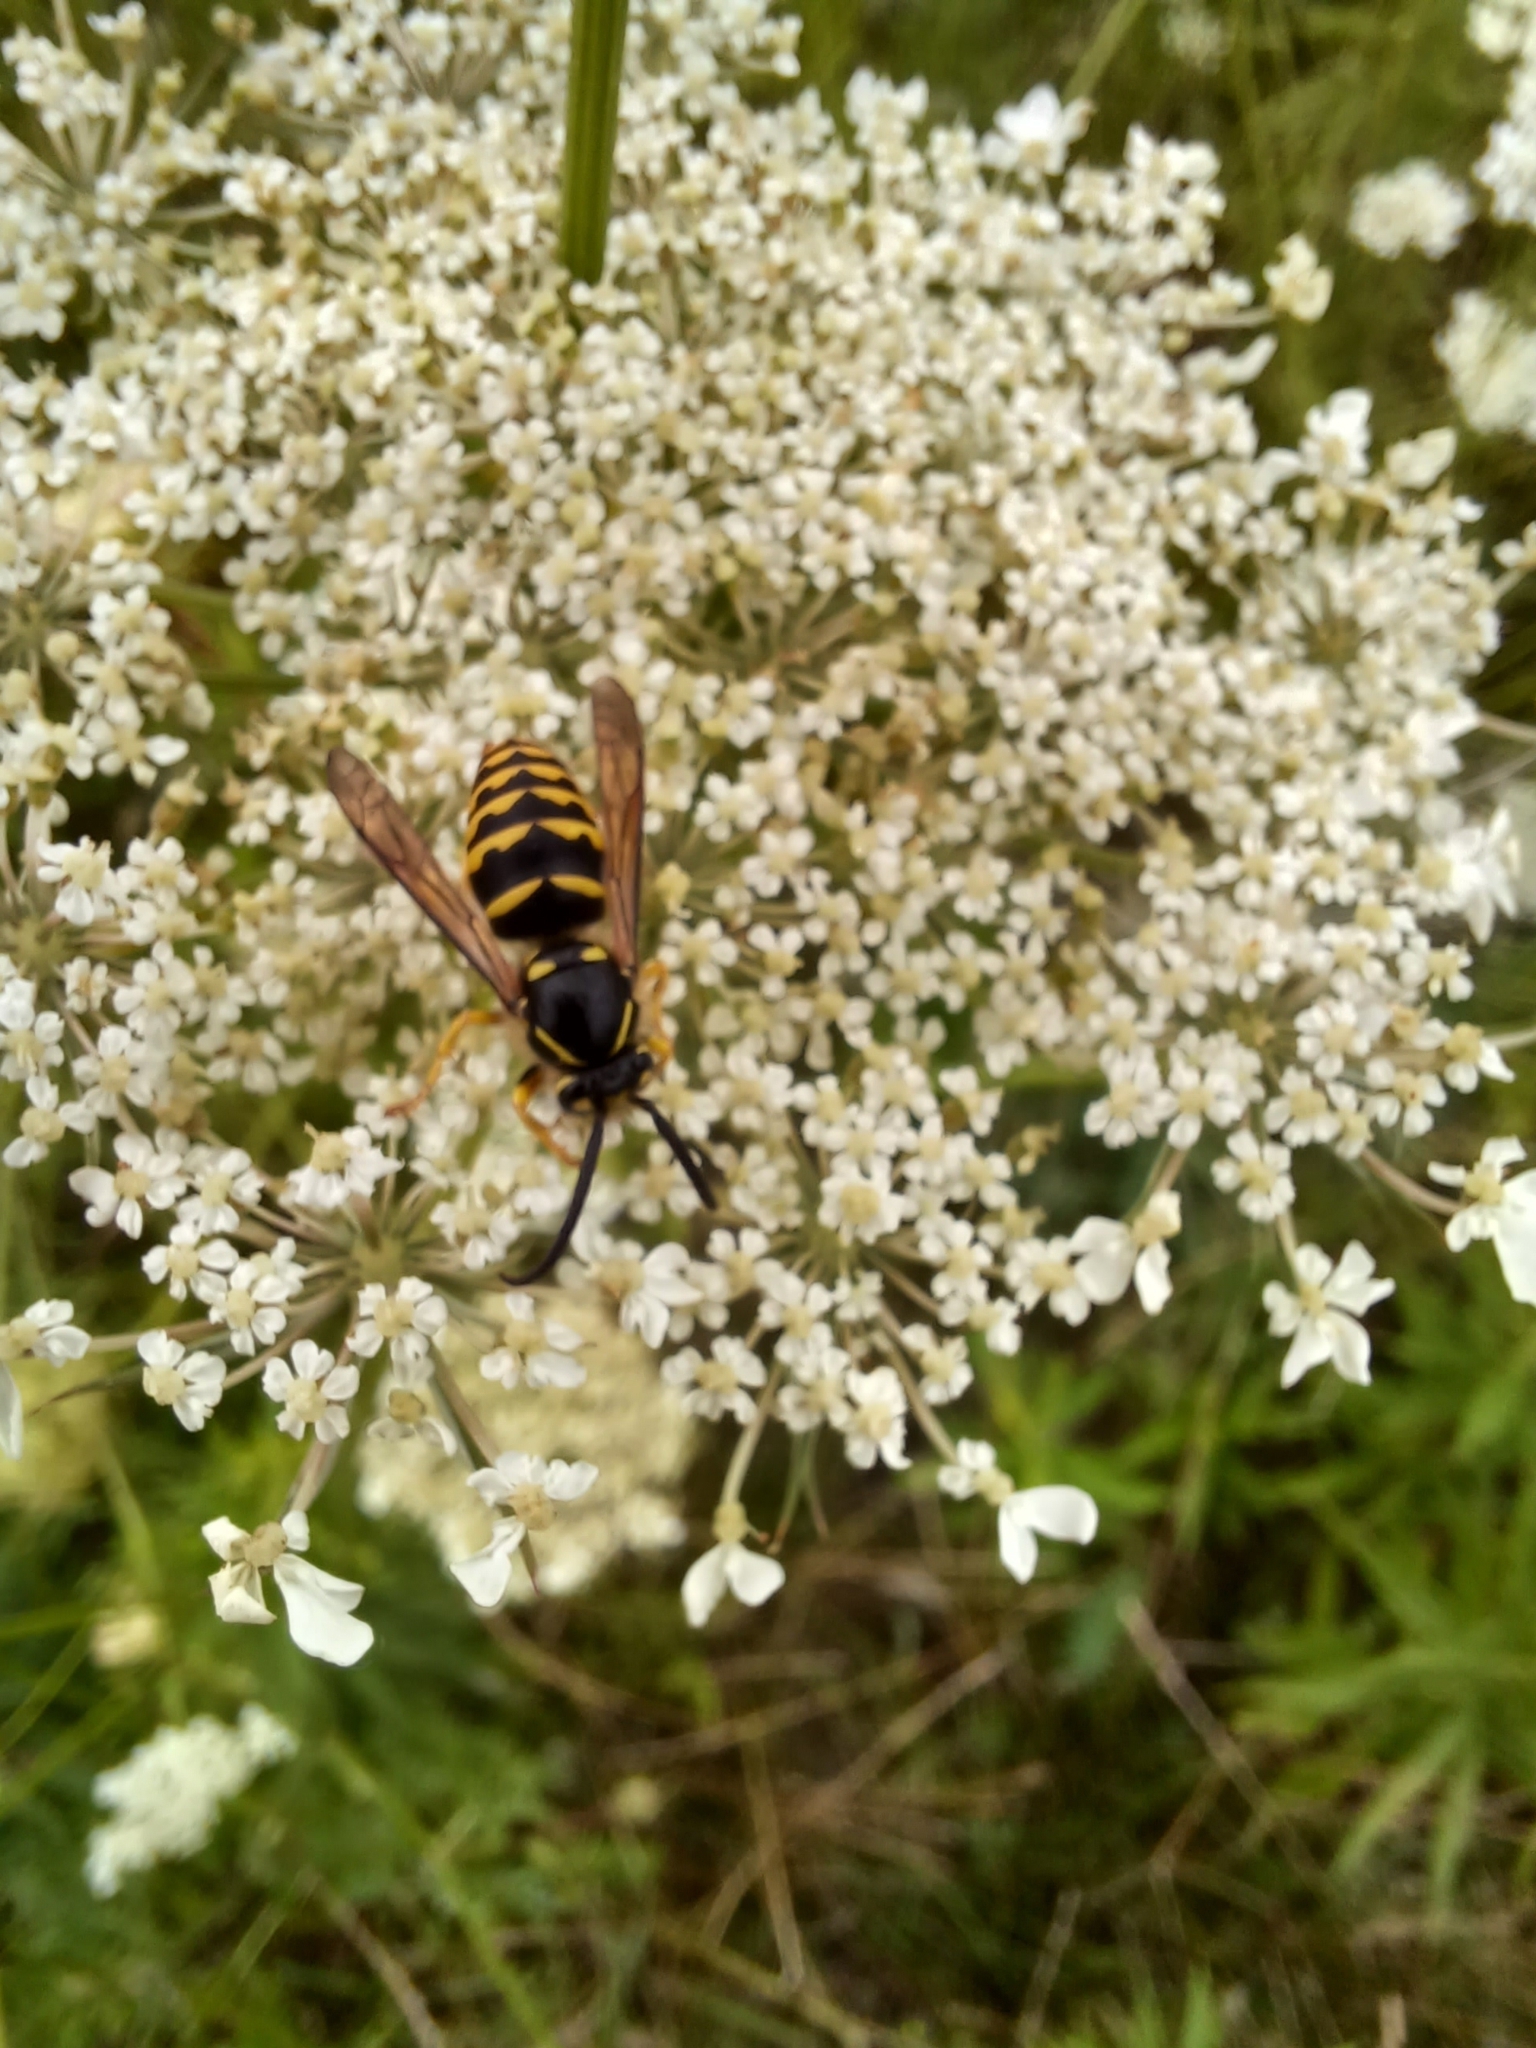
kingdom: Animalia
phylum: Arthropoda
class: Insecta
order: Hymenoptera
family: Vespidae
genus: Dolichovespula
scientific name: Dolichovespula arenaria
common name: Aerial yellowjacket
